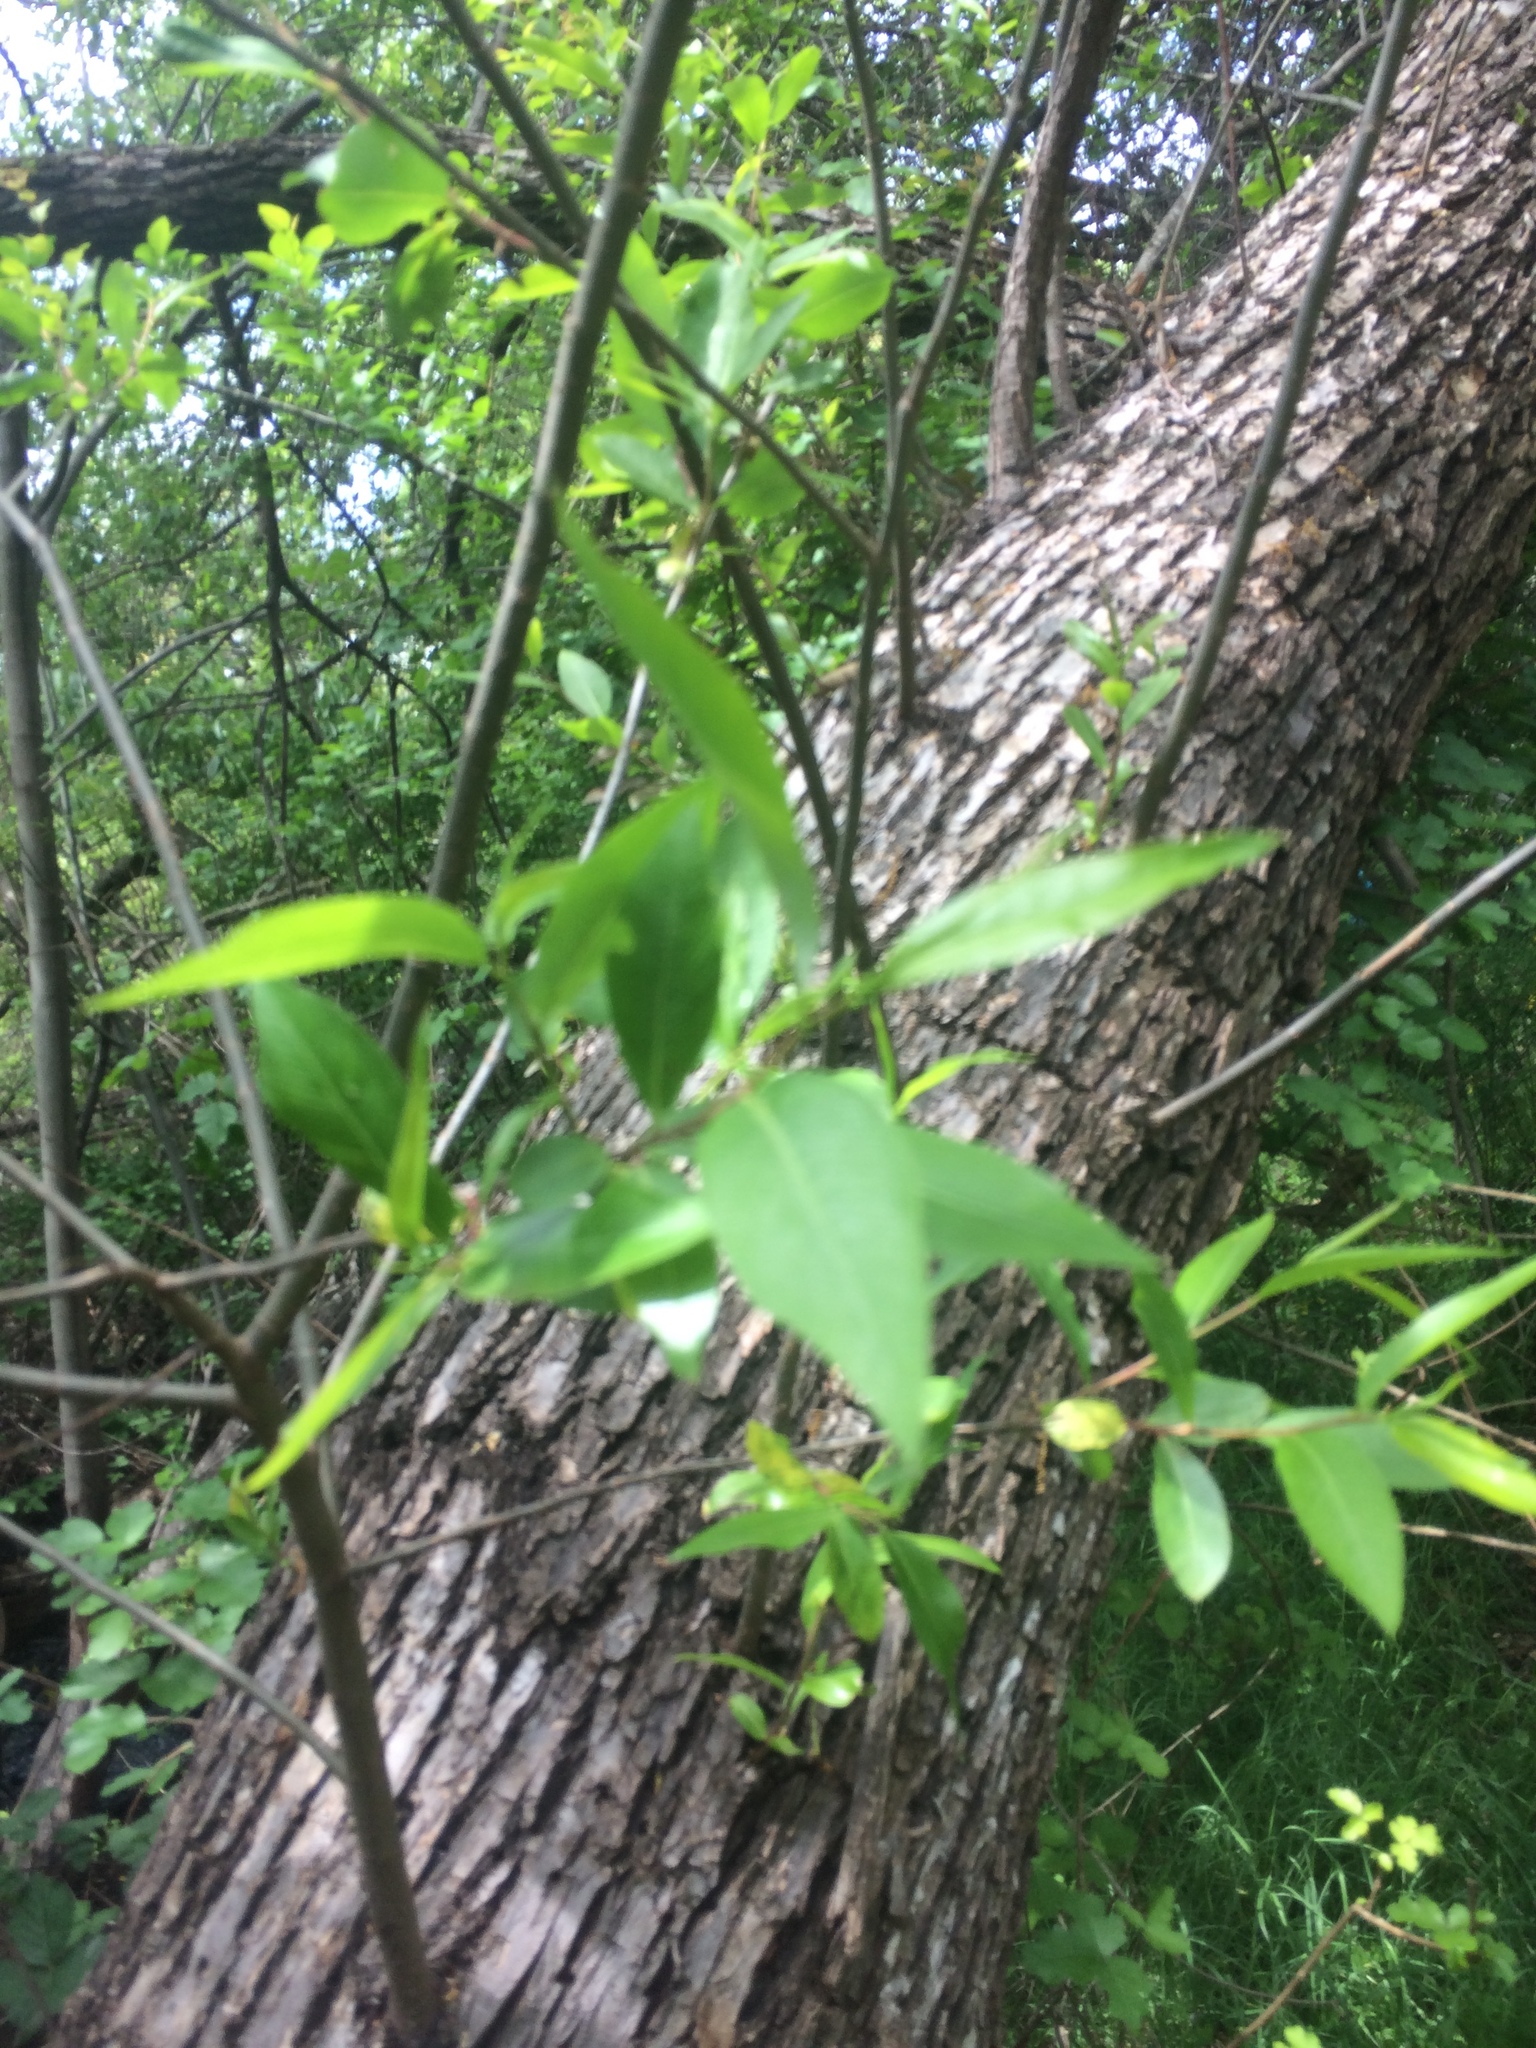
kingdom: Plantae
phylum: Tracheophyta
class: Magnoliopsida
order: Malpighiales
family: Salicaceae
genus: Salix
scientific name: Salix
